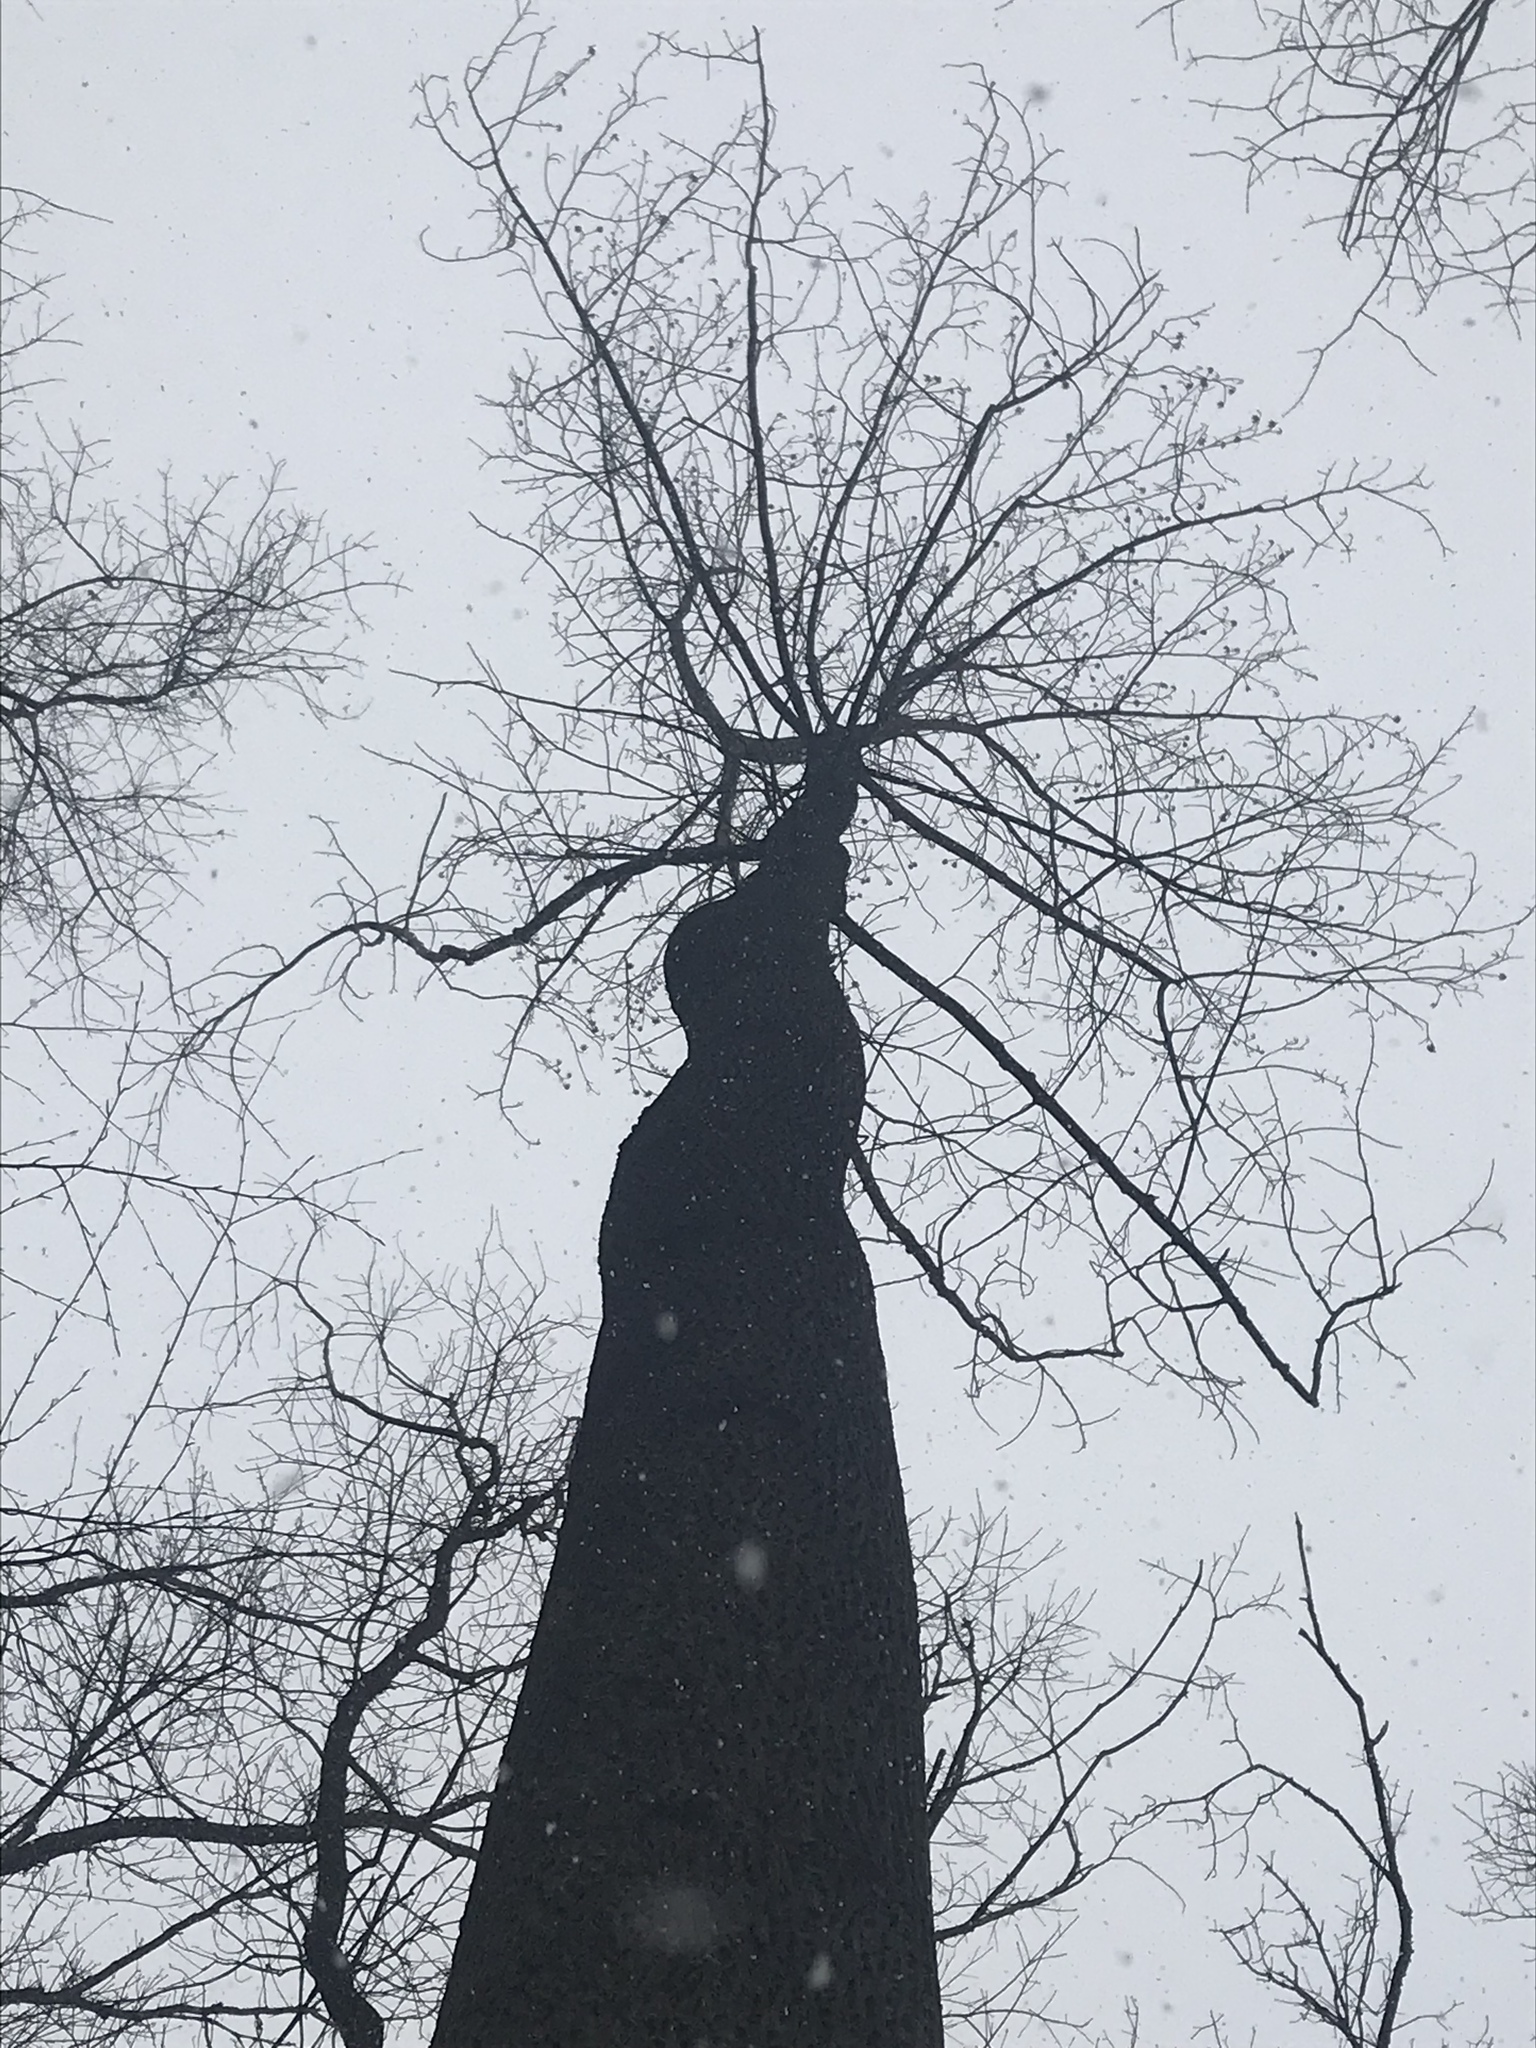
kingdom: Plantae
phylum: Tracheophyta
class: Magnoliopsida
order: Magnoliales
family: Magnoliaceae
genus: Liriodendron
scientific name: Liriodendron tulipifera
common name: Tulip tree
